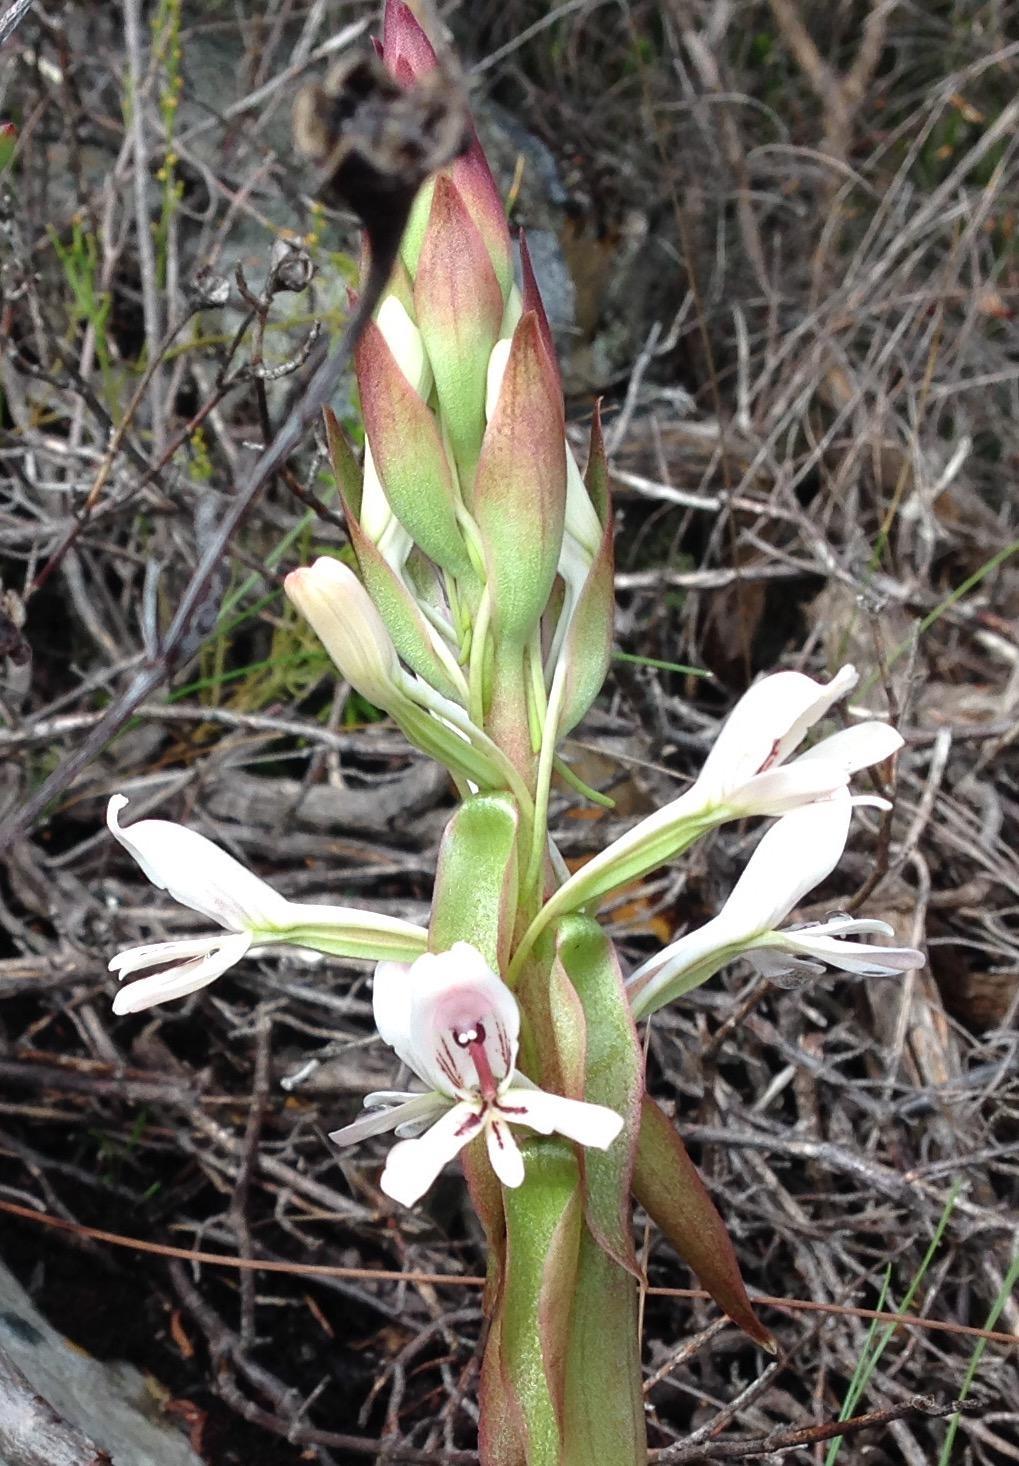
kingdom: Plantae
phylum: Tracheophyta
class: Liliopsida
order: Asparagales
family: Orchidaceae
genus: Satyrium
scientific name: Satyrium longicolle
